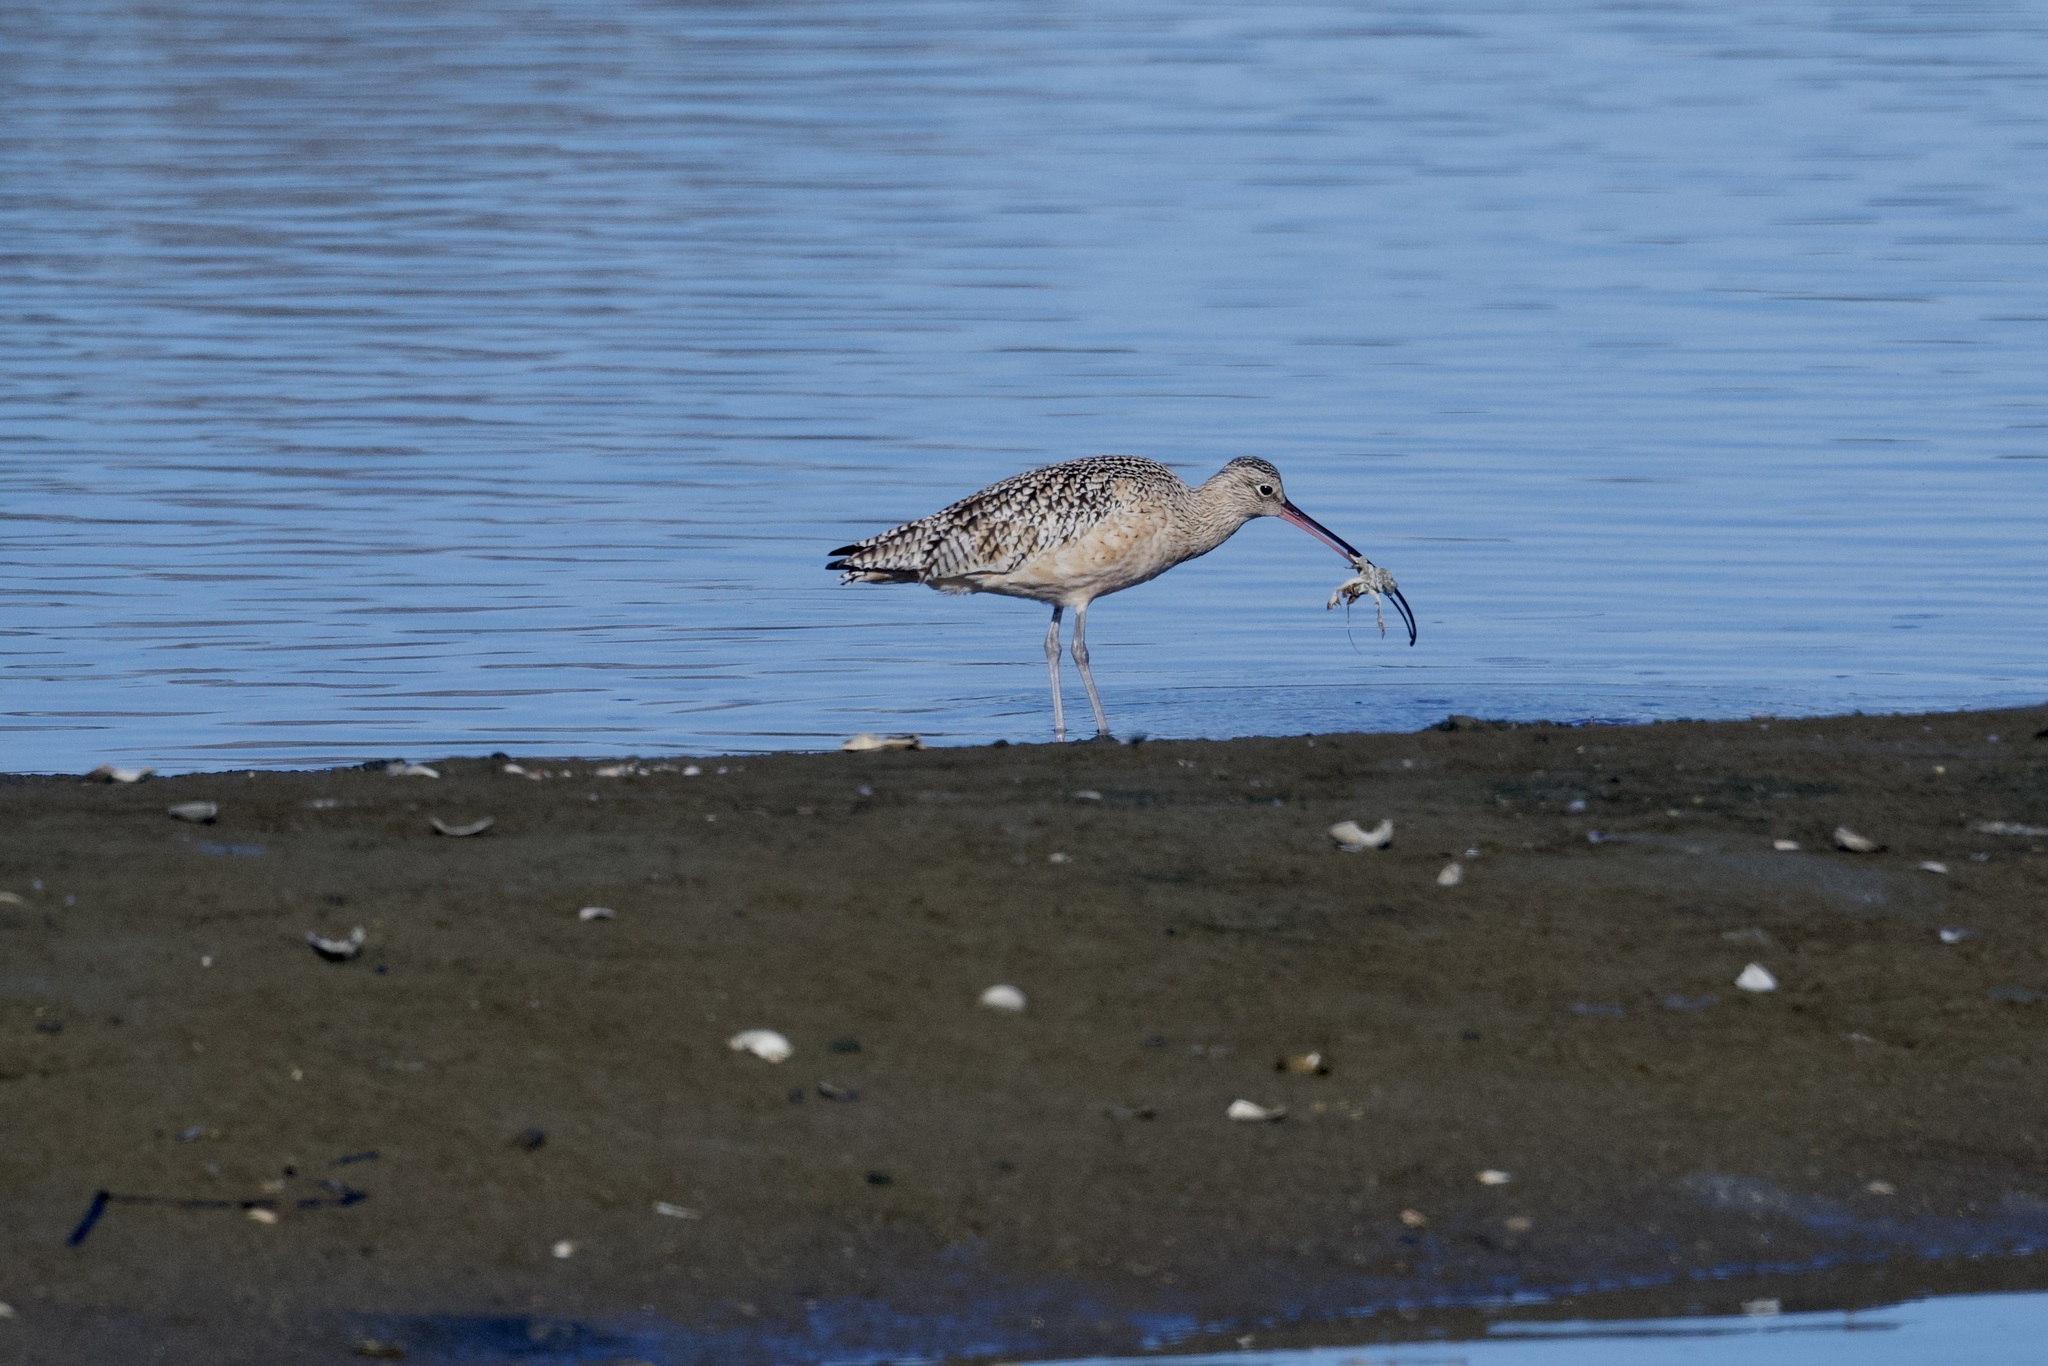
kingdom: Animalia
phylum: Chordata
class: Aves
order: Charadriiformes
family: Scolopacidae
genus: Numenius
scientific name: Numenius americanus
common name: Long-billed curlew
